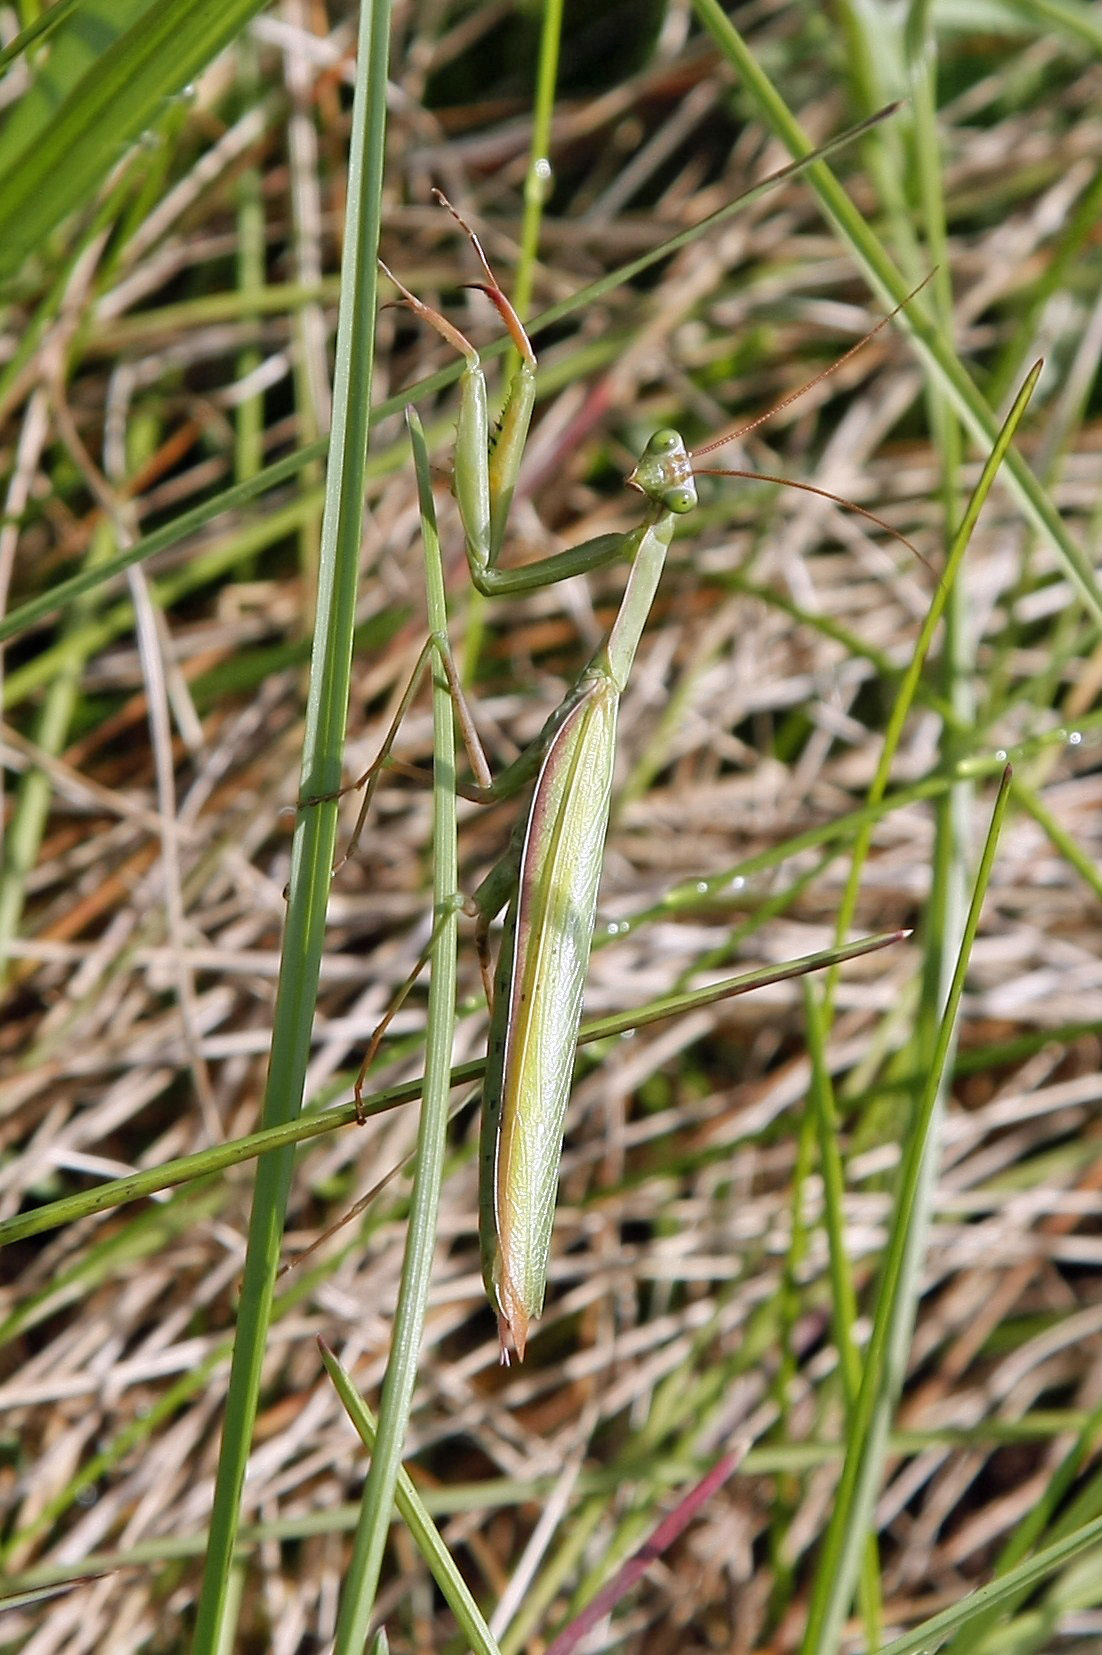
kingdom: Animalia
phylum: Arthropoda
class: Insecta
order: Mantodea
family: Mantidae
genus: Mantis
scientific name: Mantis religiosa
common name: Praying mantis
